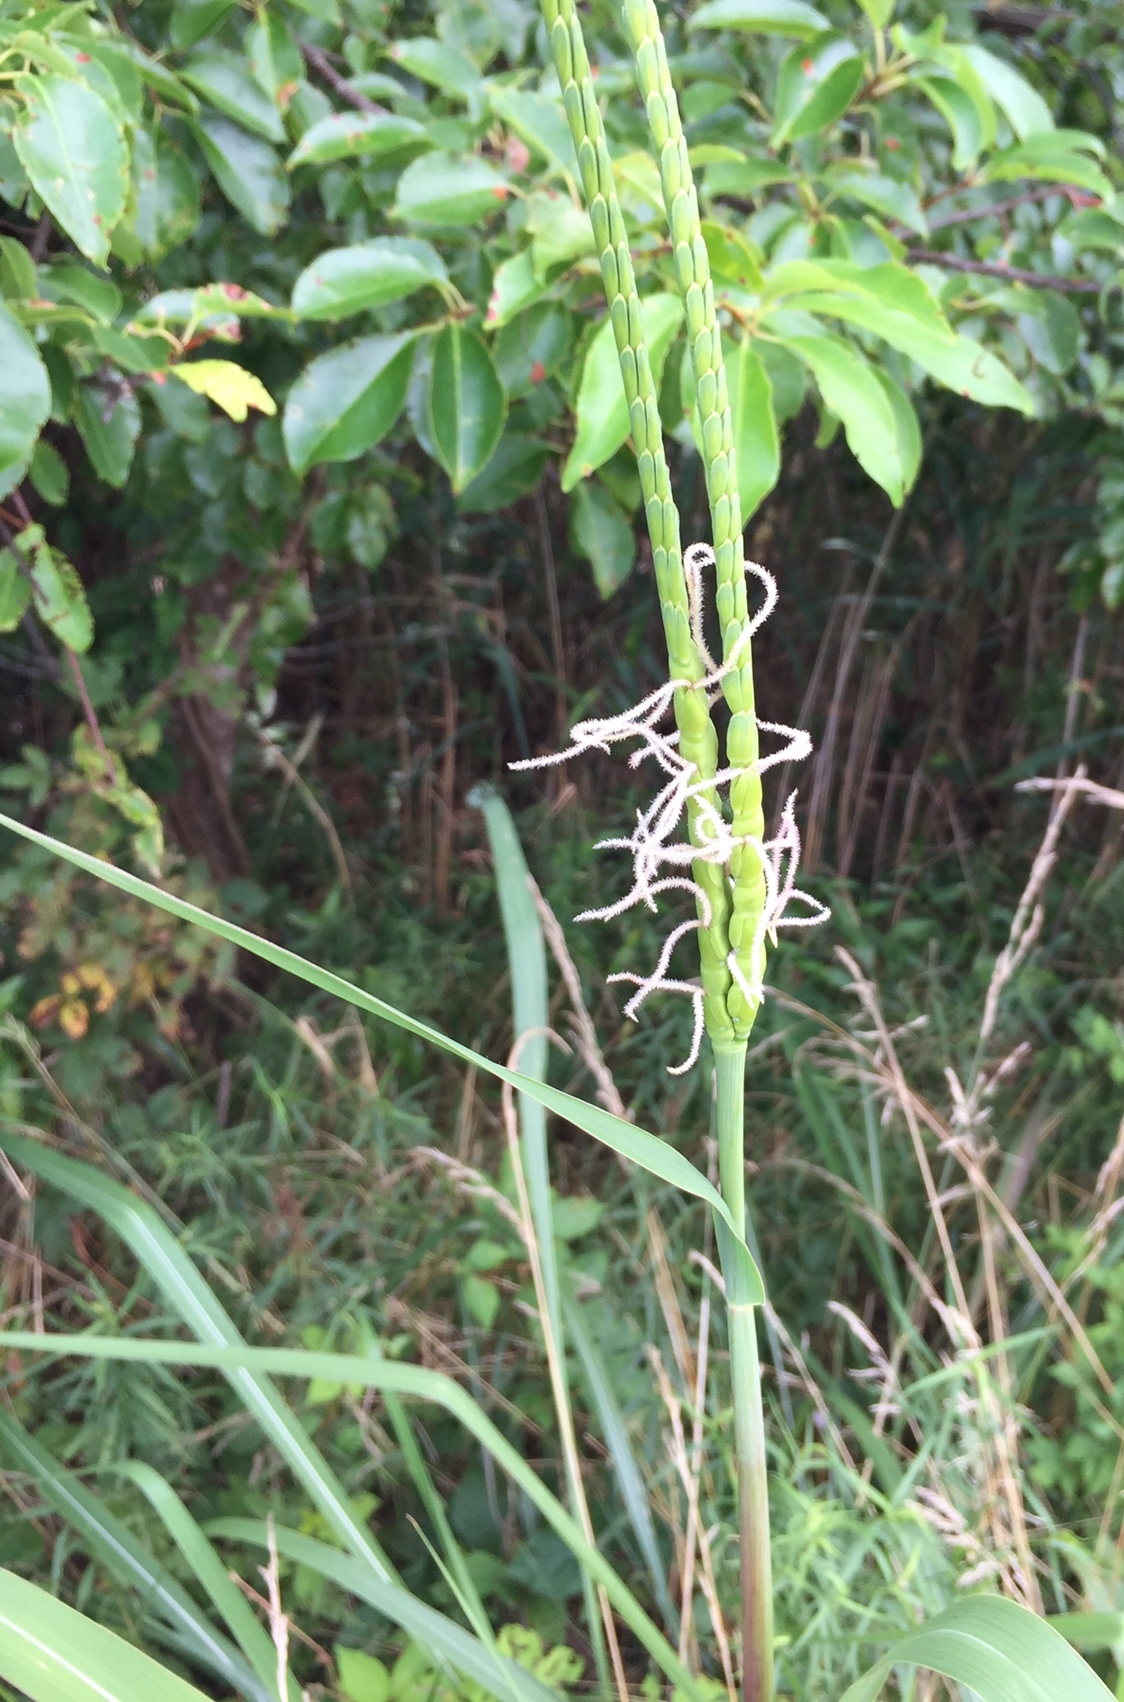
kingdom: Plantae
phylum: Tracheophyta
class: Liliopsida
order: Poales
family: Poaceae
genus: Tripsacum
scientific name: Tripsacum dactyloides
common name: Buffalo-grass
